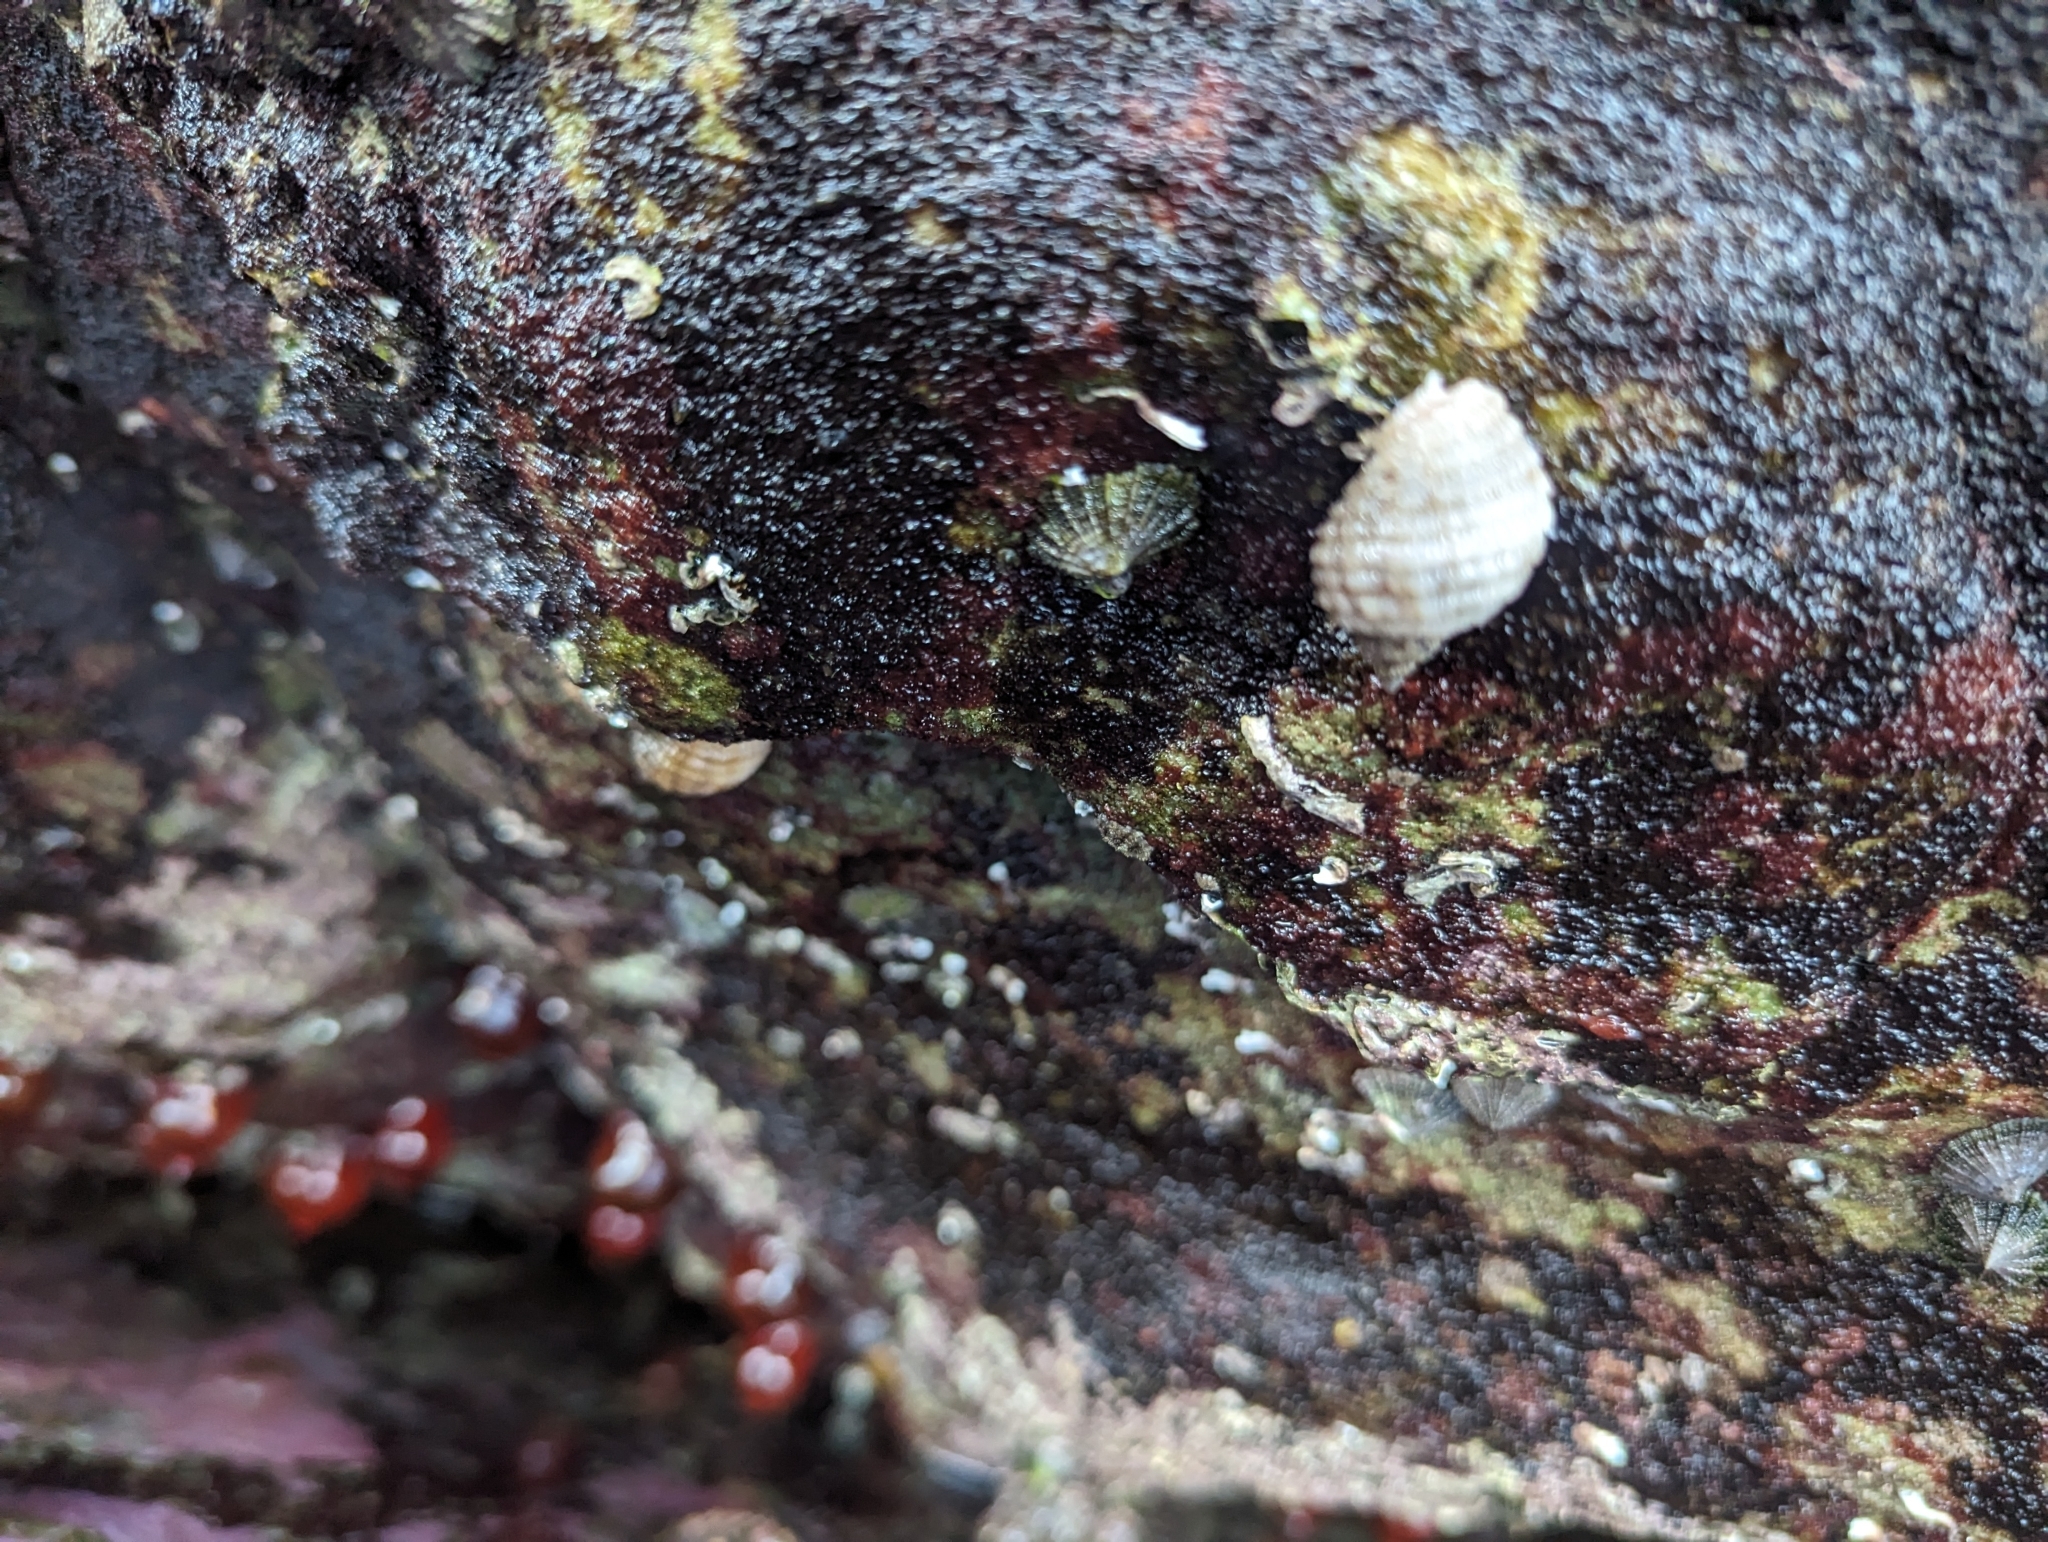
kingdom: Animalia
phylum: Mollusca
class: Gastropoda
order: Neogastropoda
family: Muricidae
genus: Dicathais
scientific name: Dicathais orbita
